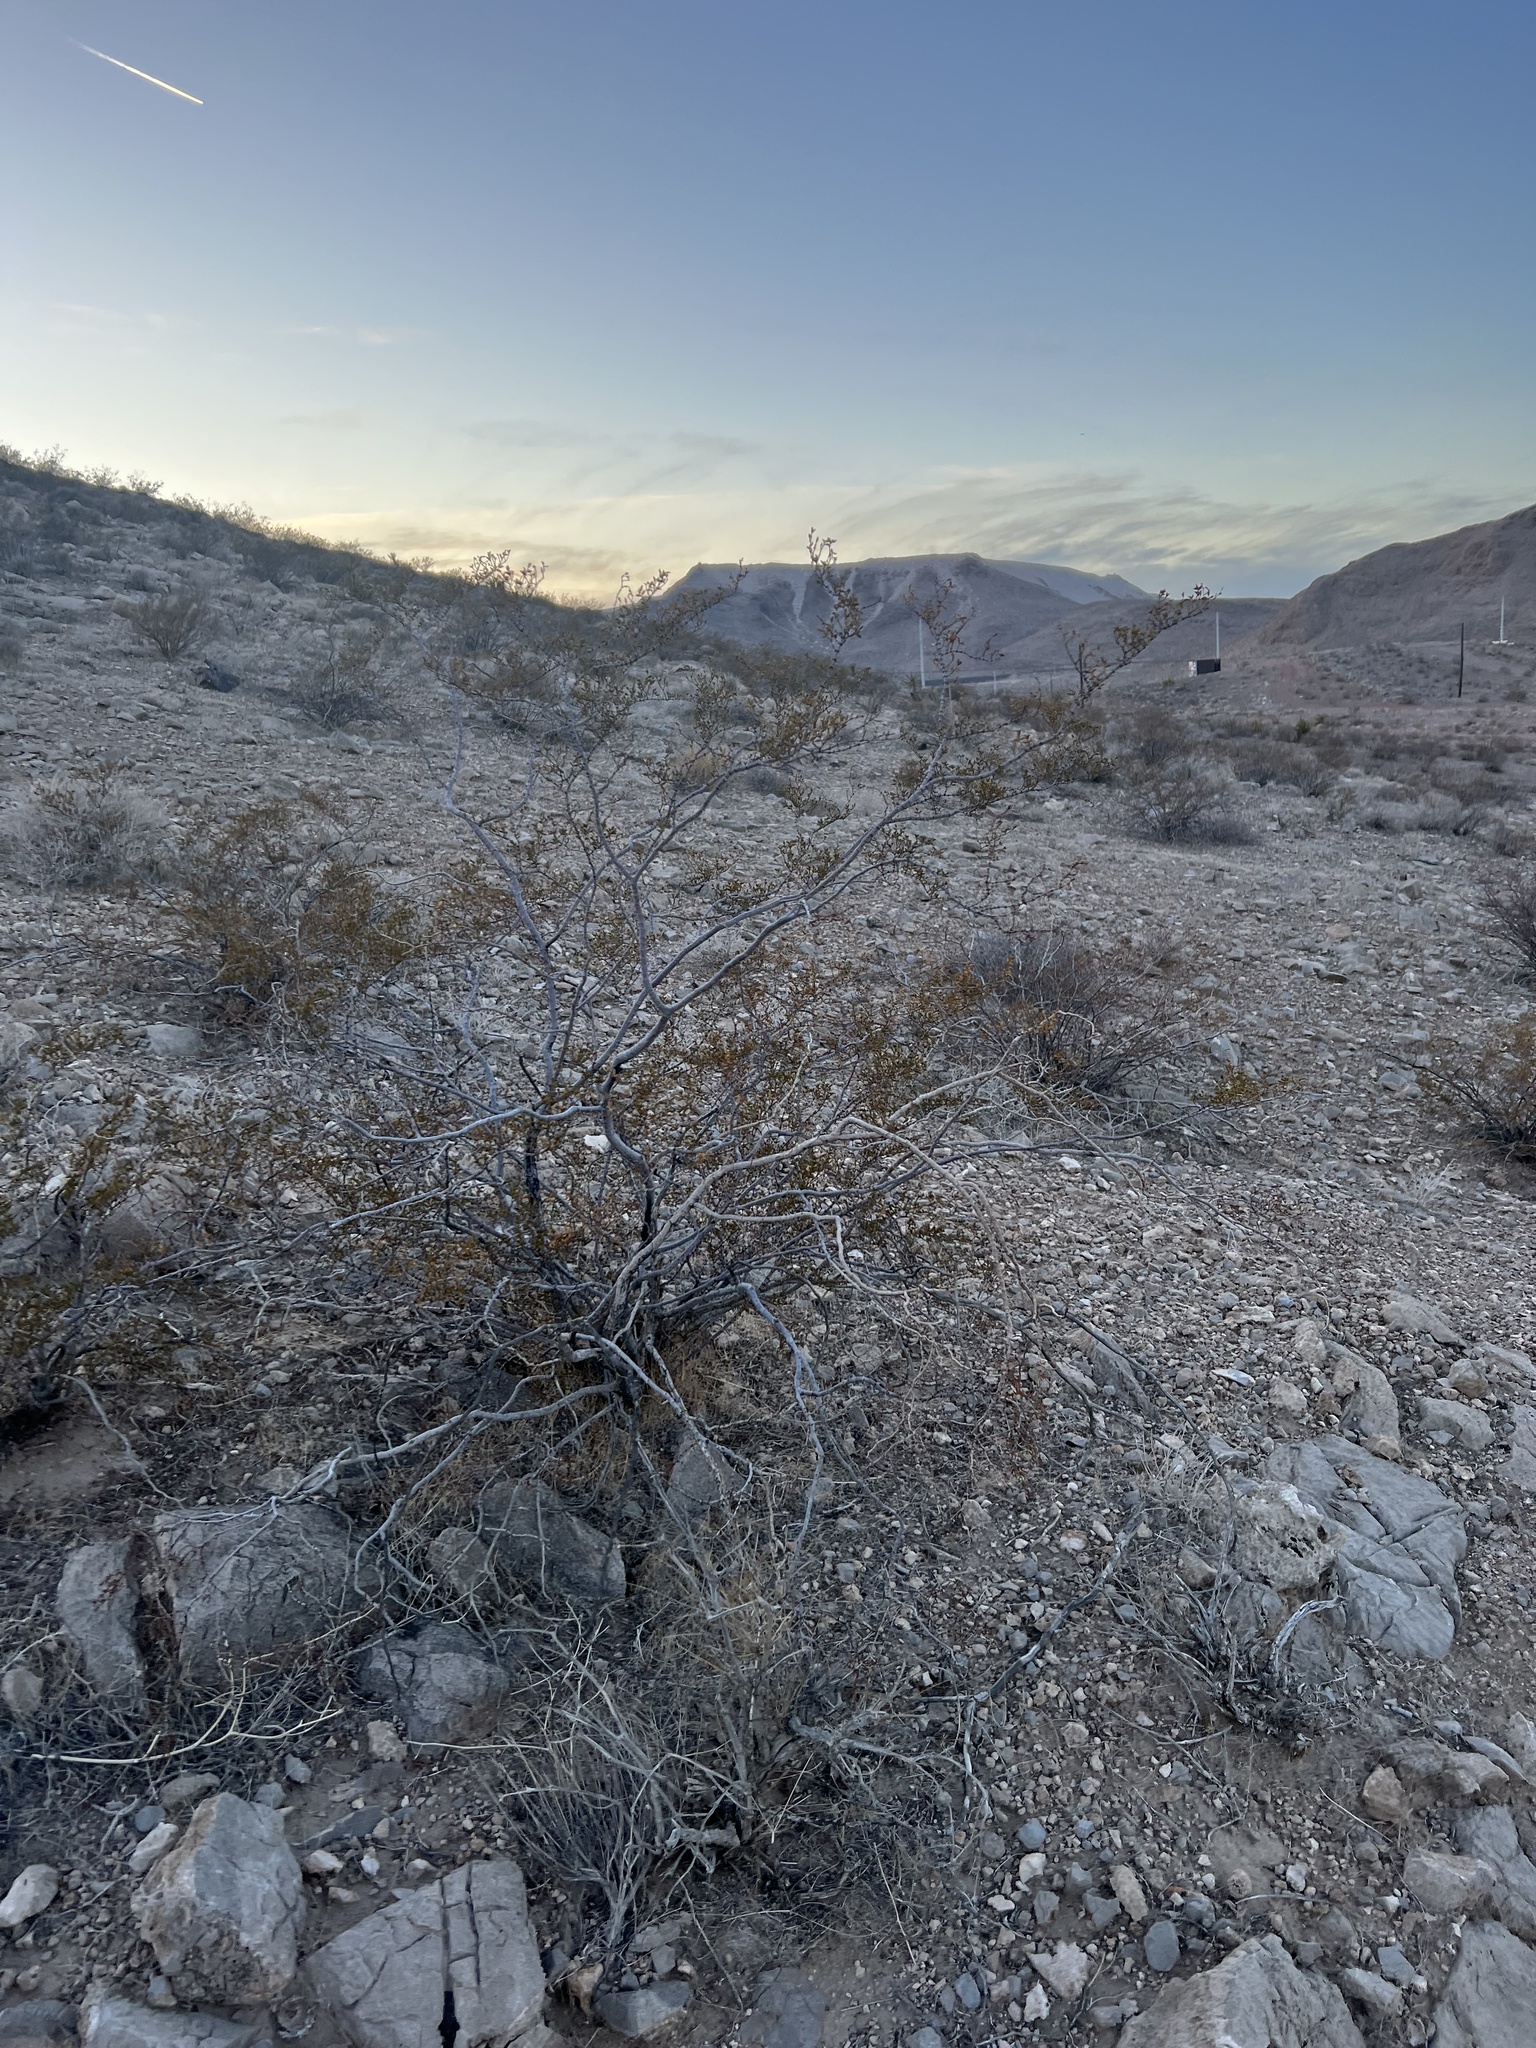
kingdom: Plantae
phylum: Tracheophyta
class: Magnoliopsida
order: Zygophyllales
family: Zygophyllaceae
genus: Larrea
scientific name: Larrea tridentata
